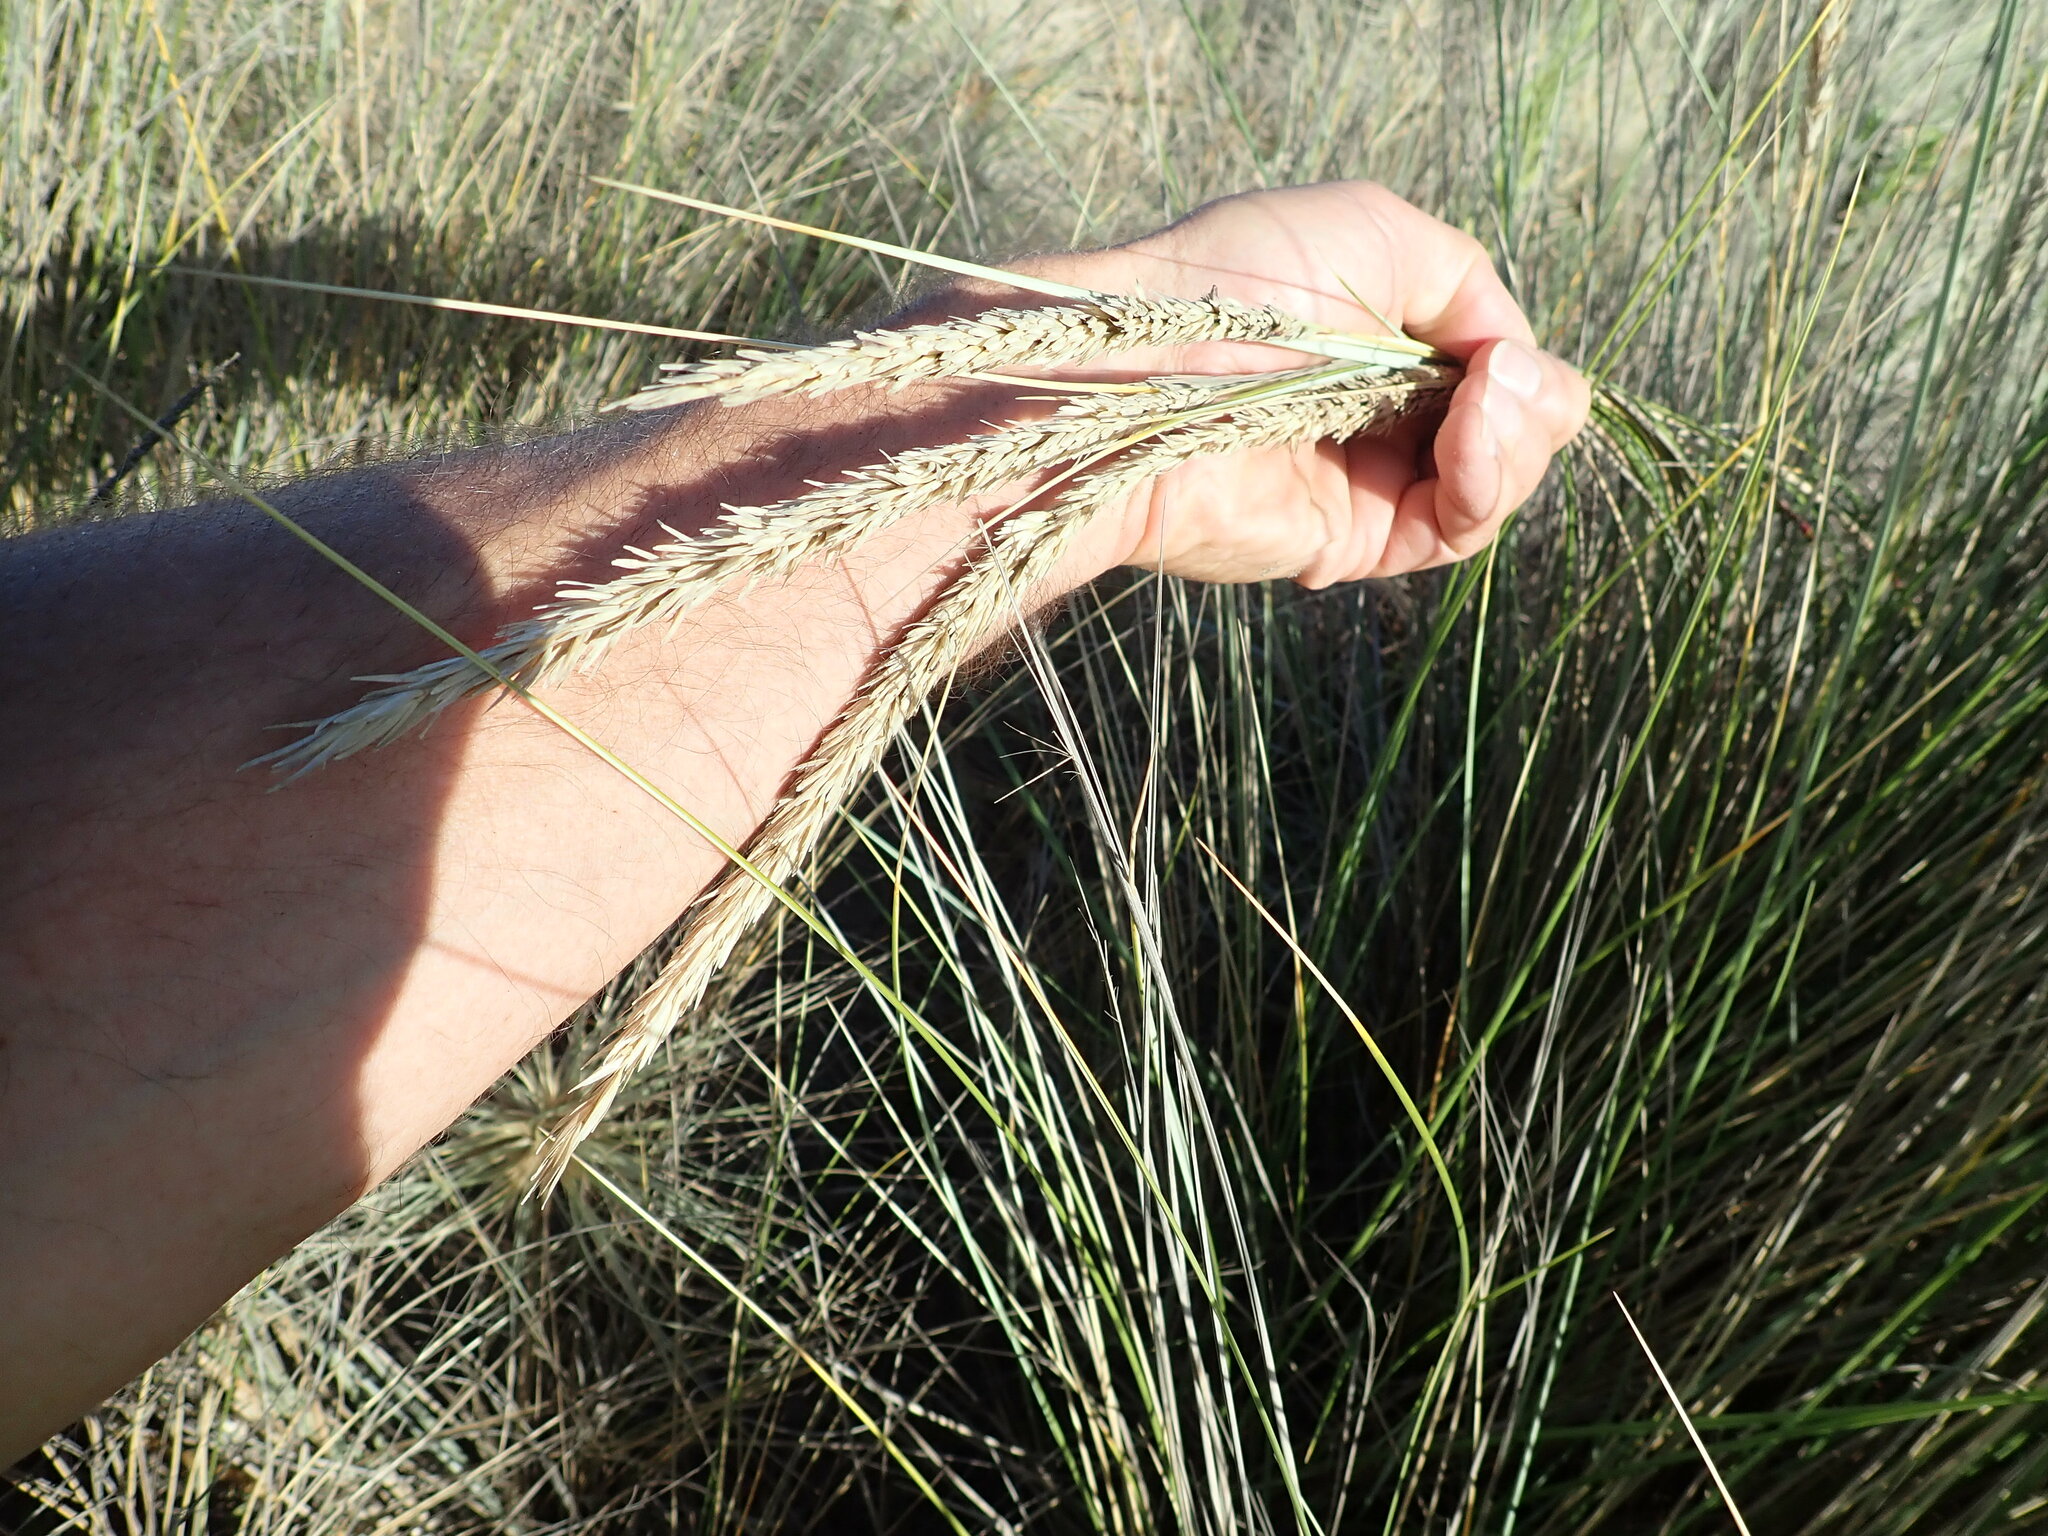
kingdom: Plantae
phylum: Tracheophyta
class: Liliopsida
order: Poales
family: Poaceae
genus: Calamagrostis
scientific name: Calamagrostis arenaria
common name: European beachgrass
